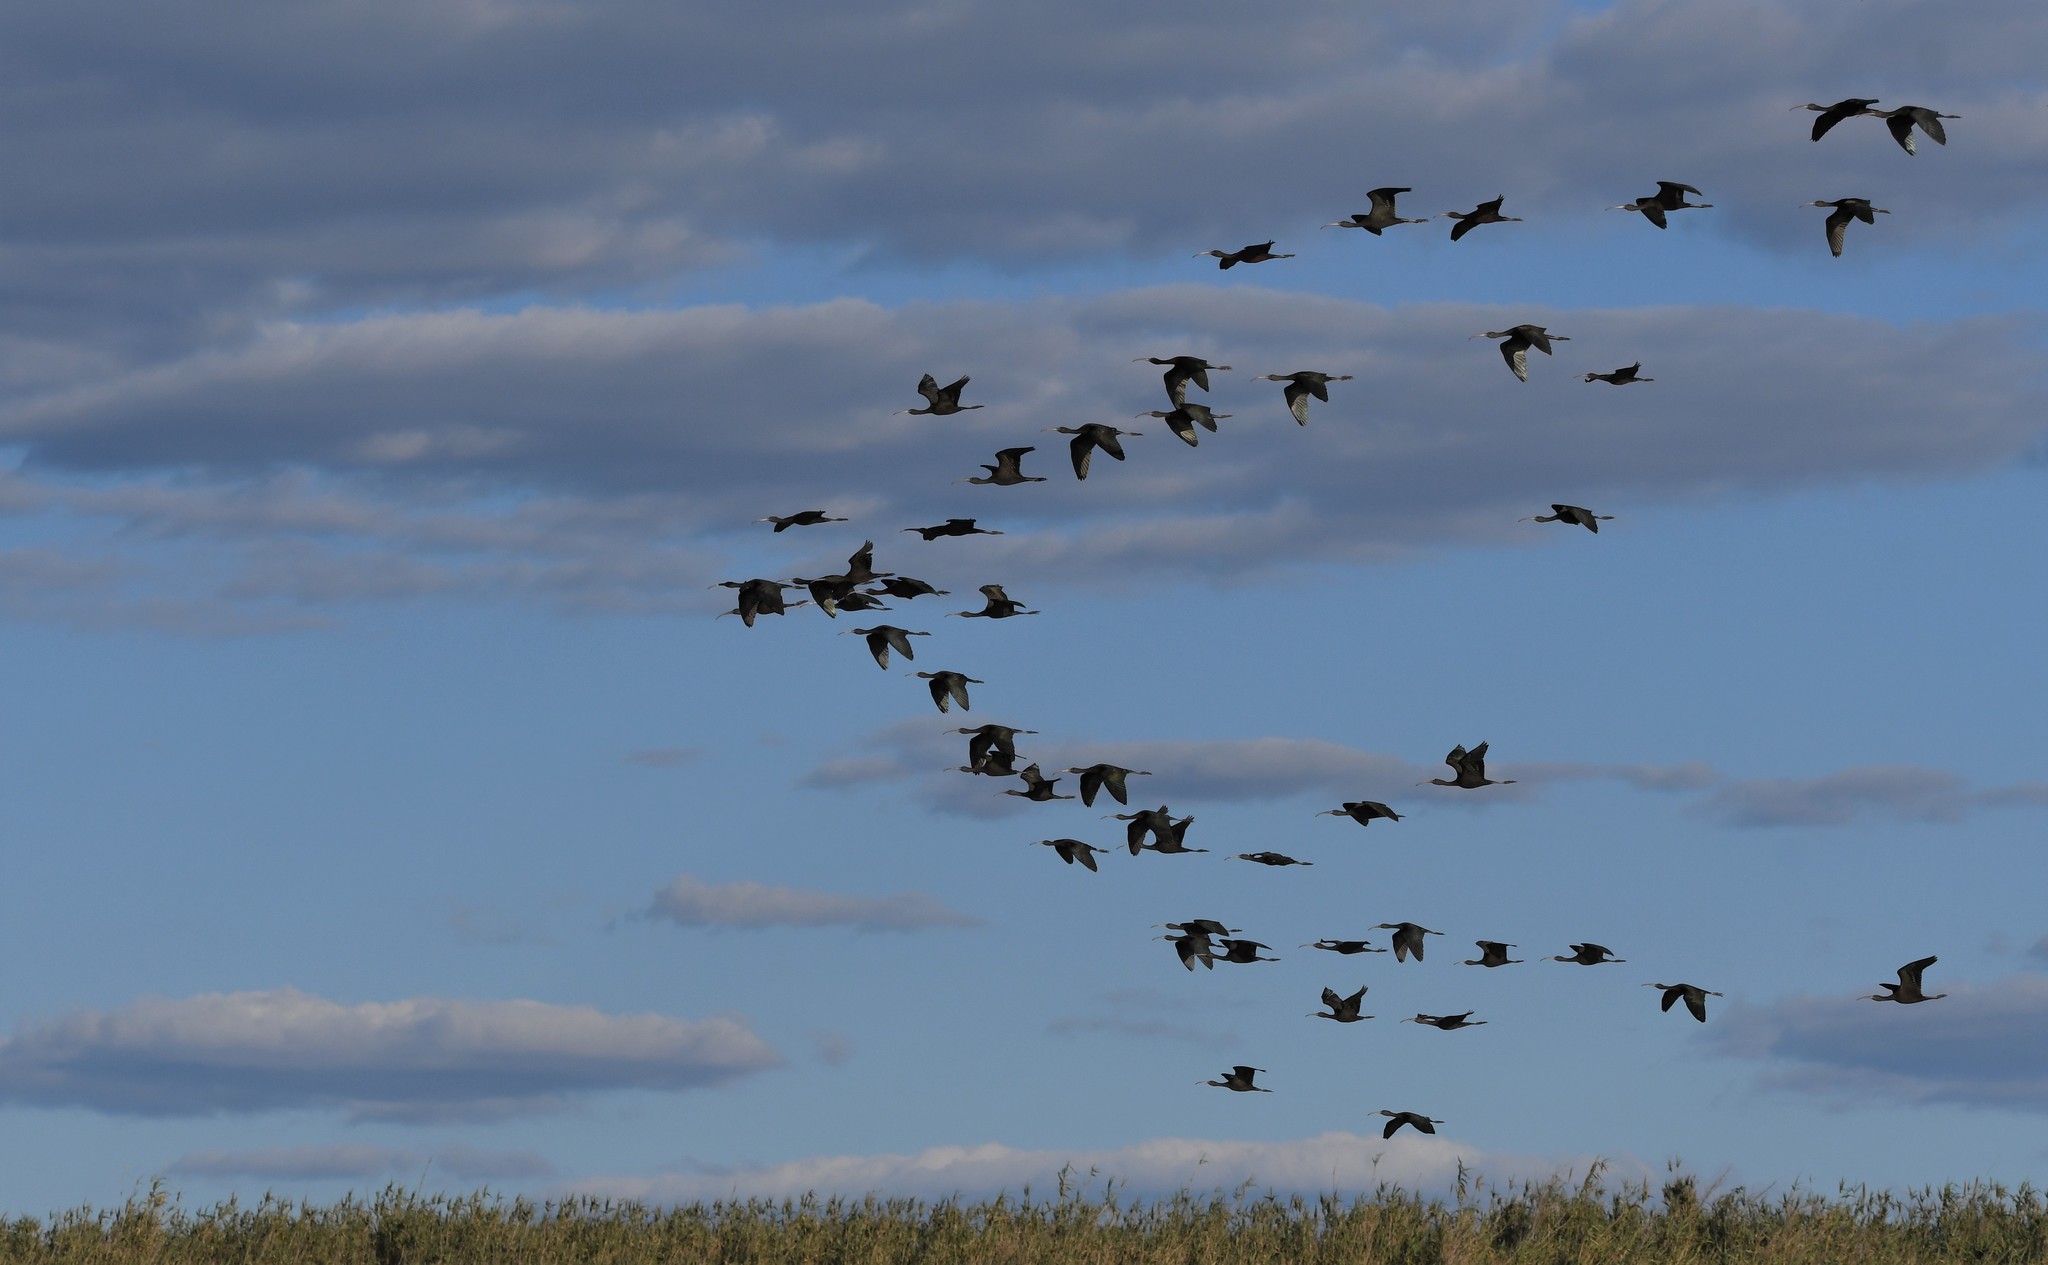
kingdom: Animalia
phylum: Chordata
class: Aves
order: Pelecaniformes
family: Threskiornithidae
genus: Plegadis
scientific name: Plegadis falcinellus
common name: Glossy ibis
